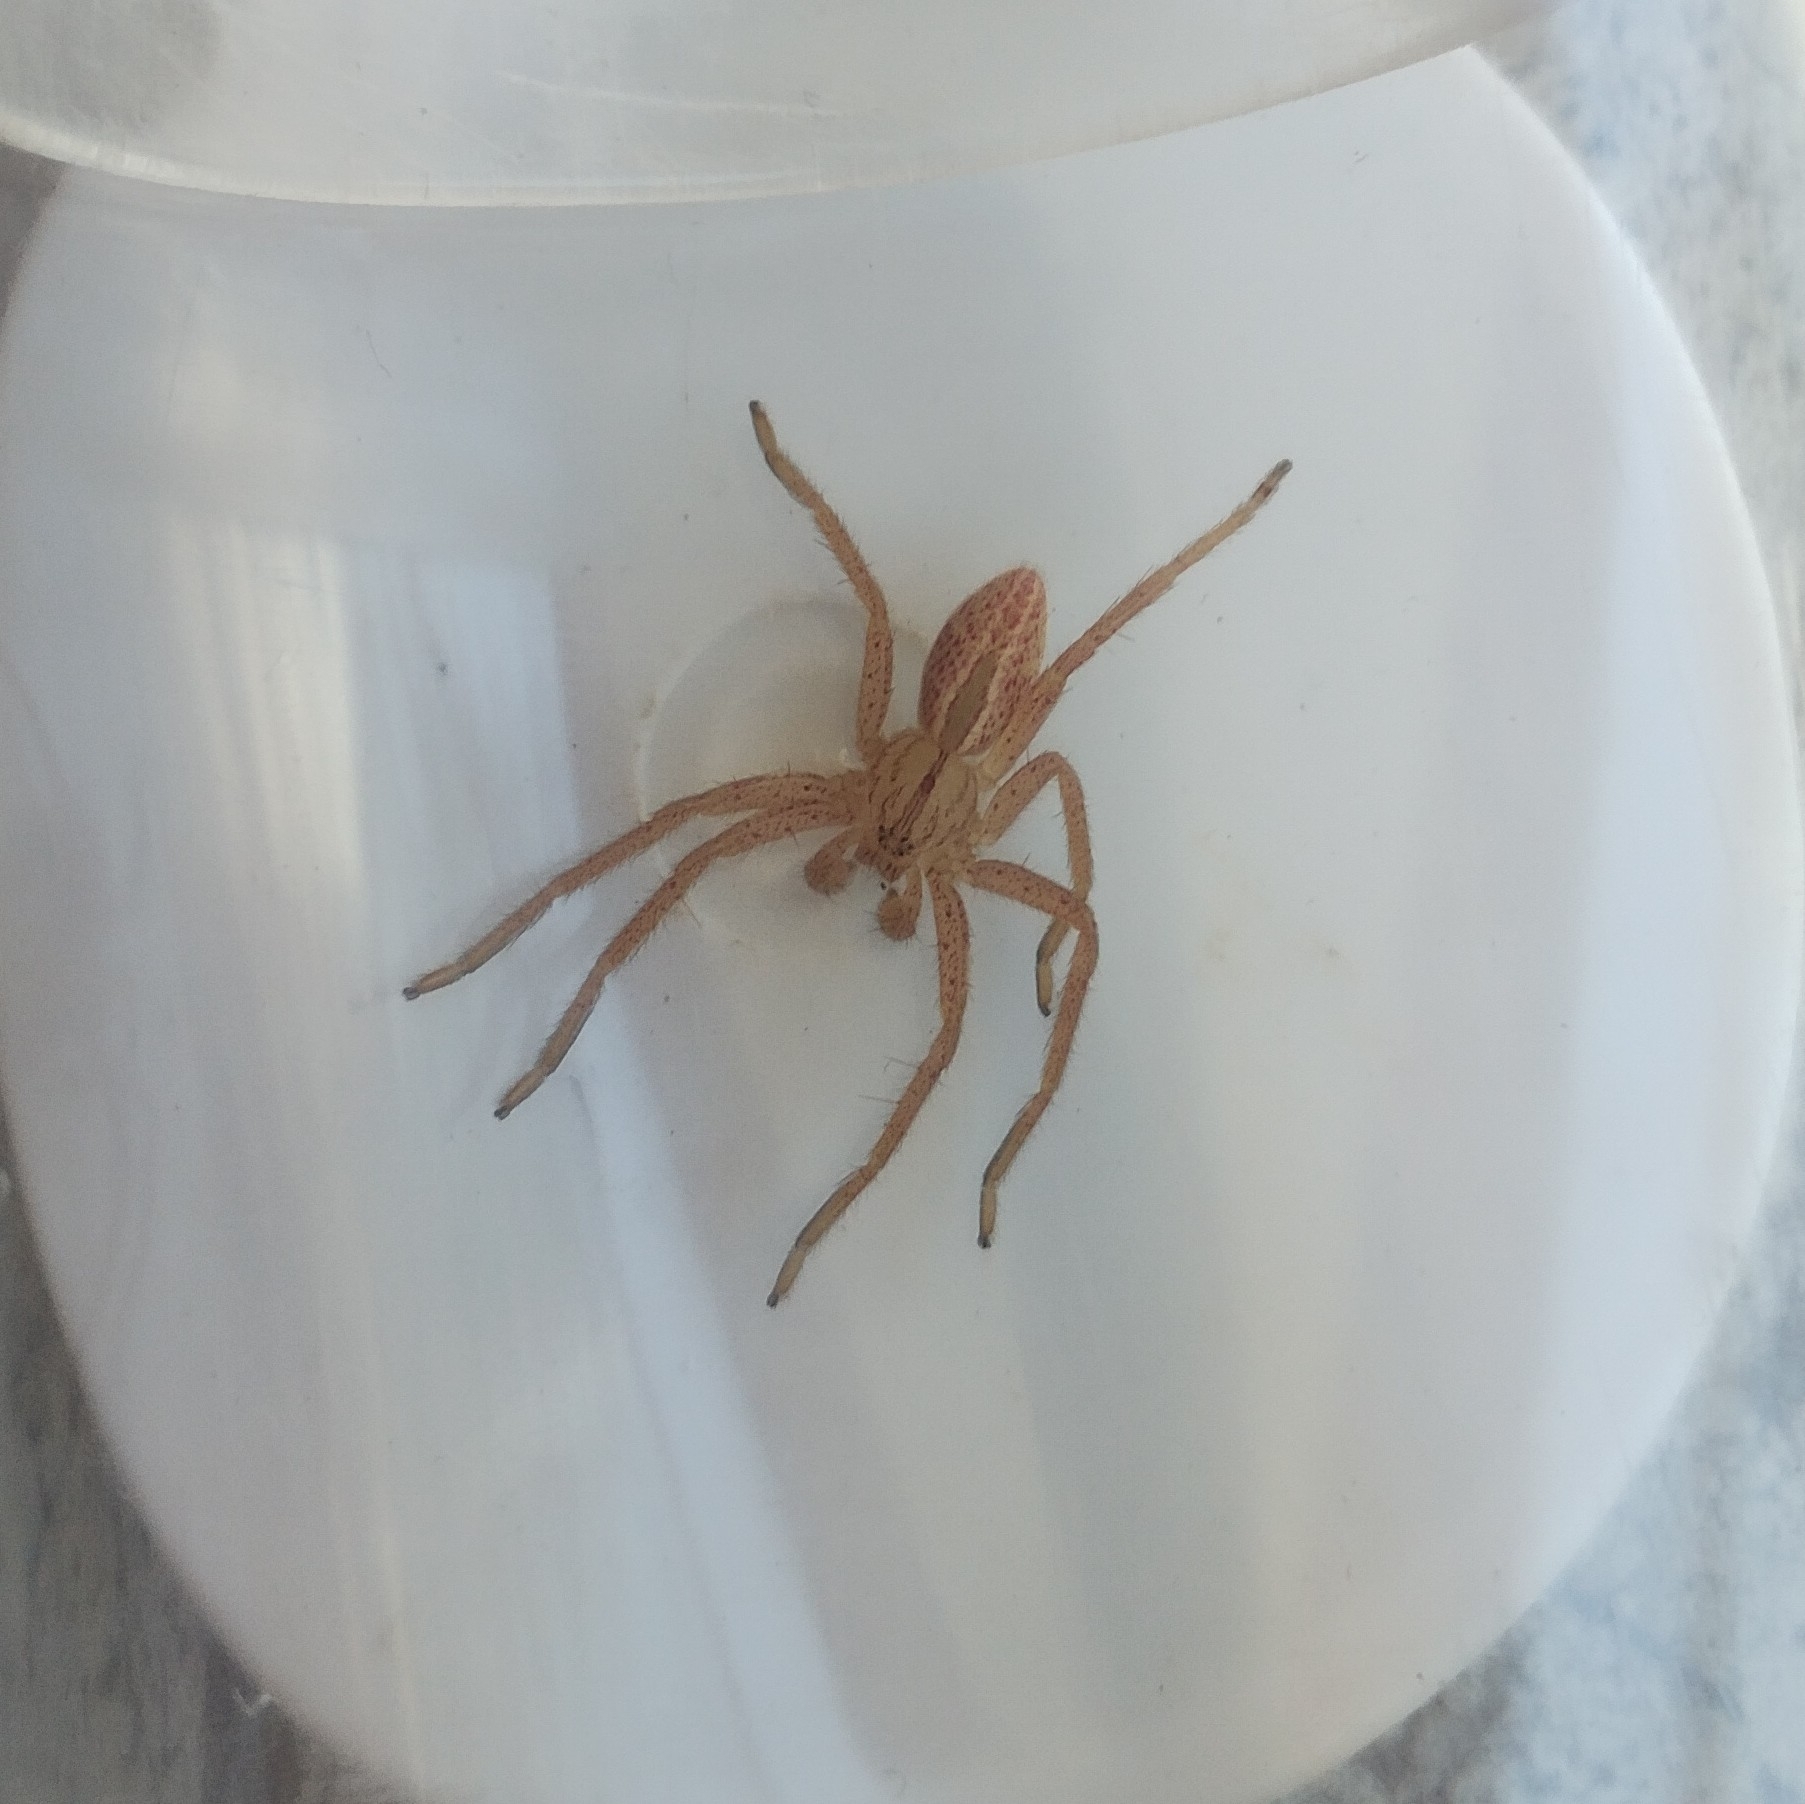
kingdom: Animalia
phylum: Arthropoda
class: Arachnida
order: Araneae
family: Sparassidae
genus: Micrommata
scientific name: Micrommata virescens
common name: Green spider
